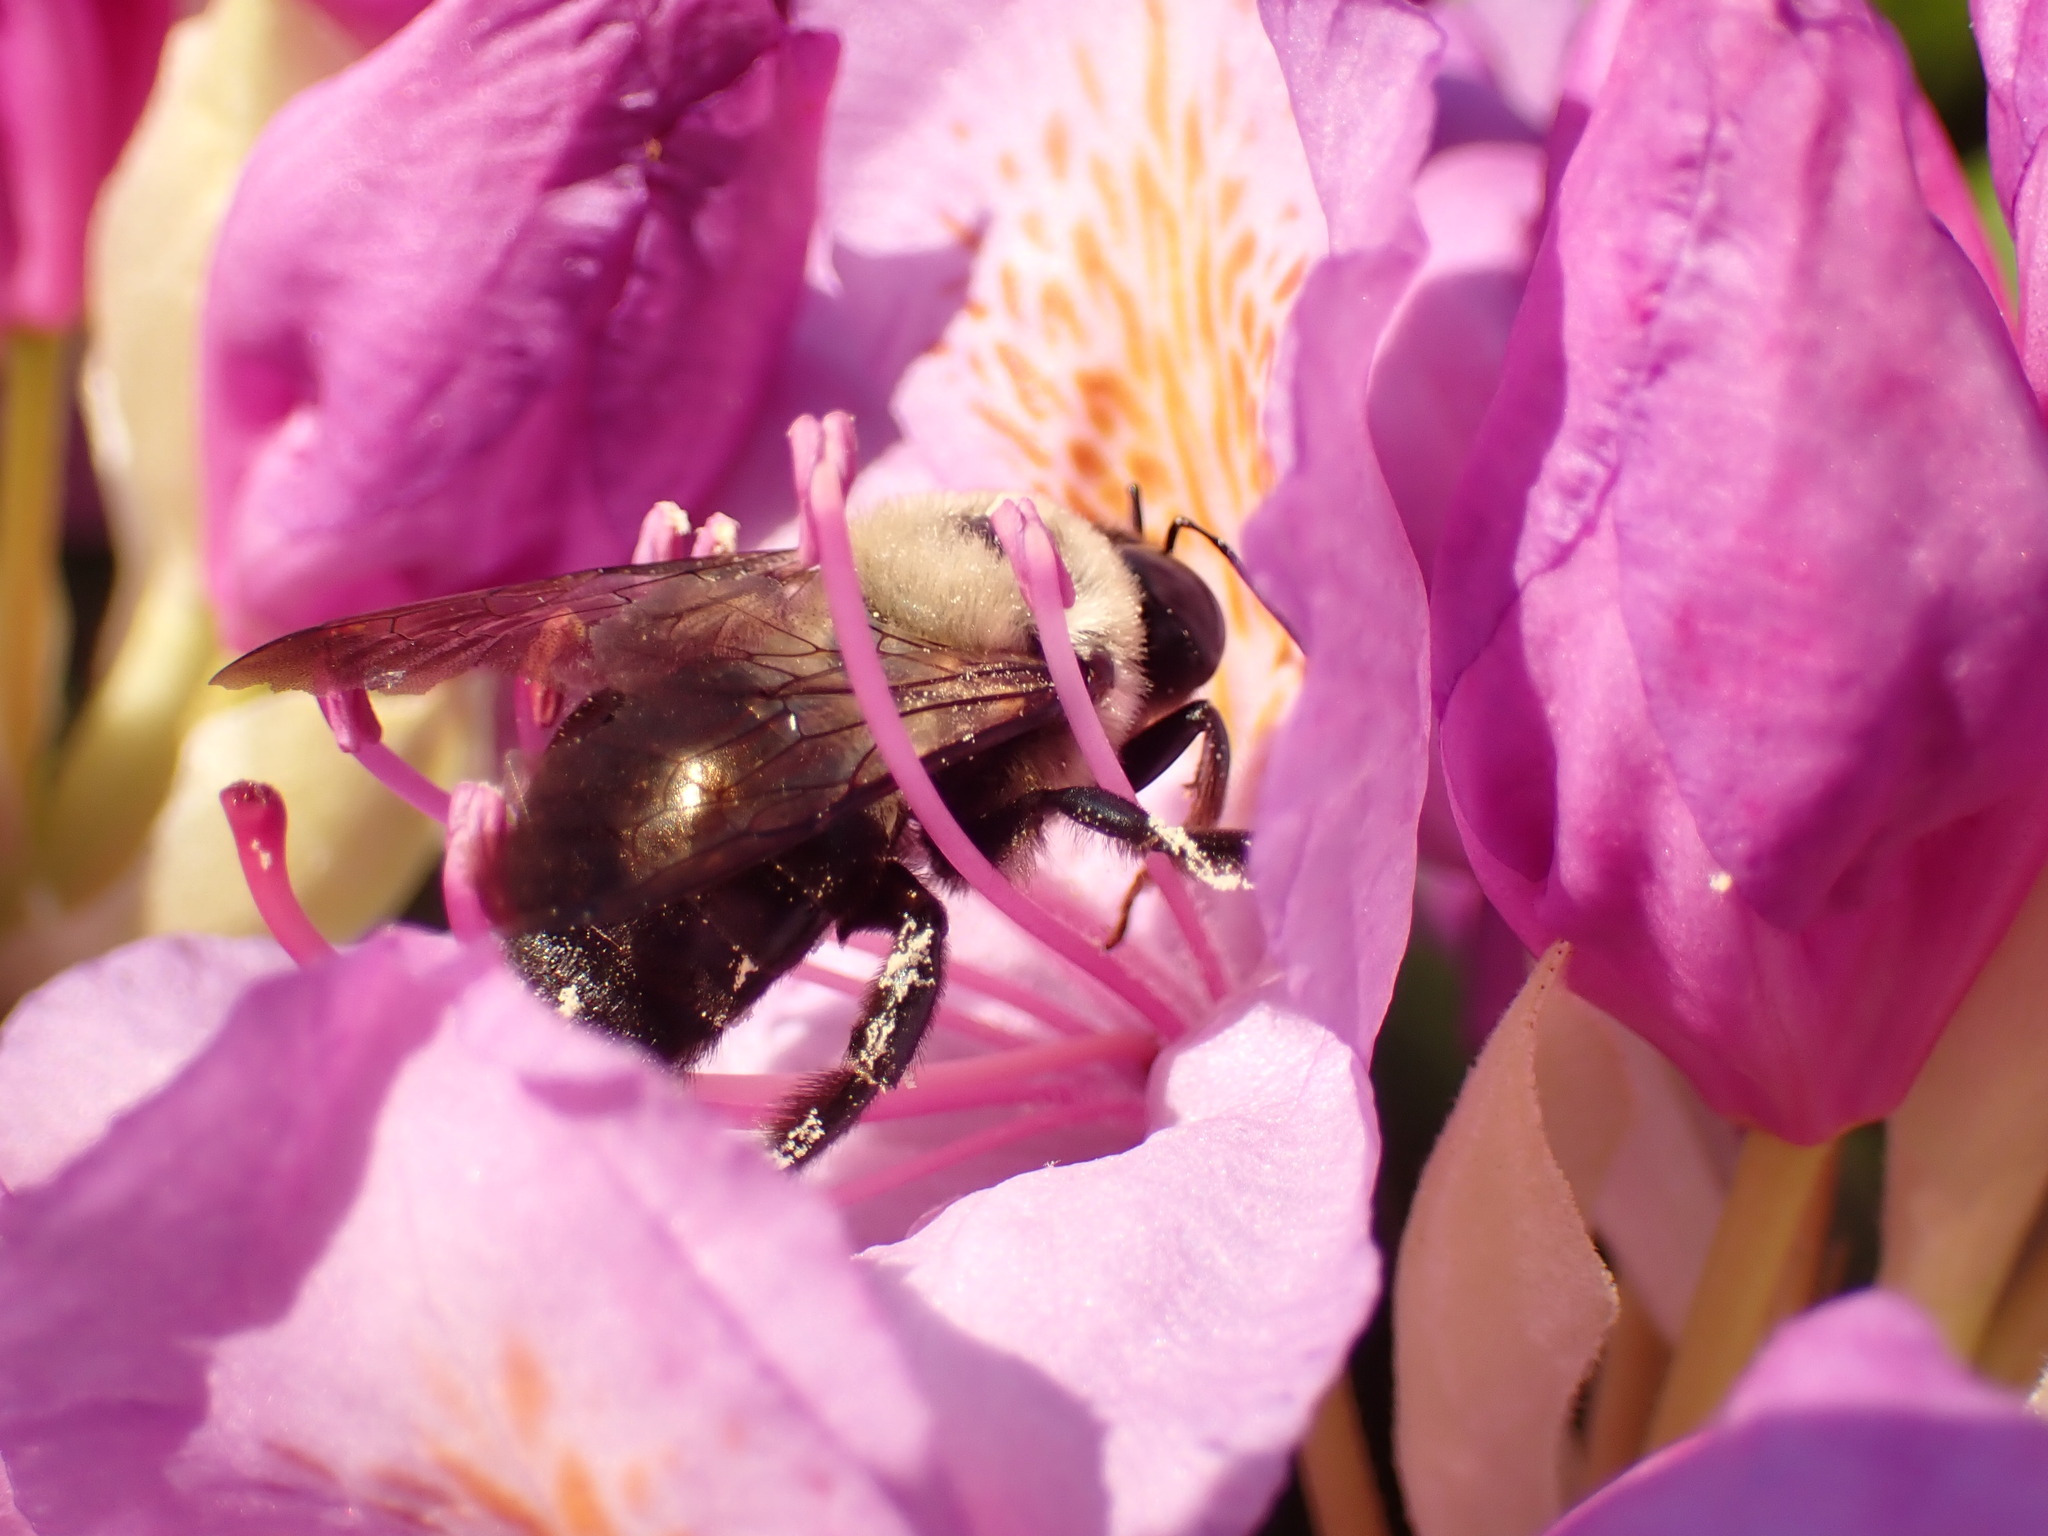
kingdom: Animalia
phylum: Arthropoda
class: Insecta
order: Hymenoptera
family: Apidae
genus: Xylocopa
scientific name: Xylocopa virginica
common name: Carpenter bee
